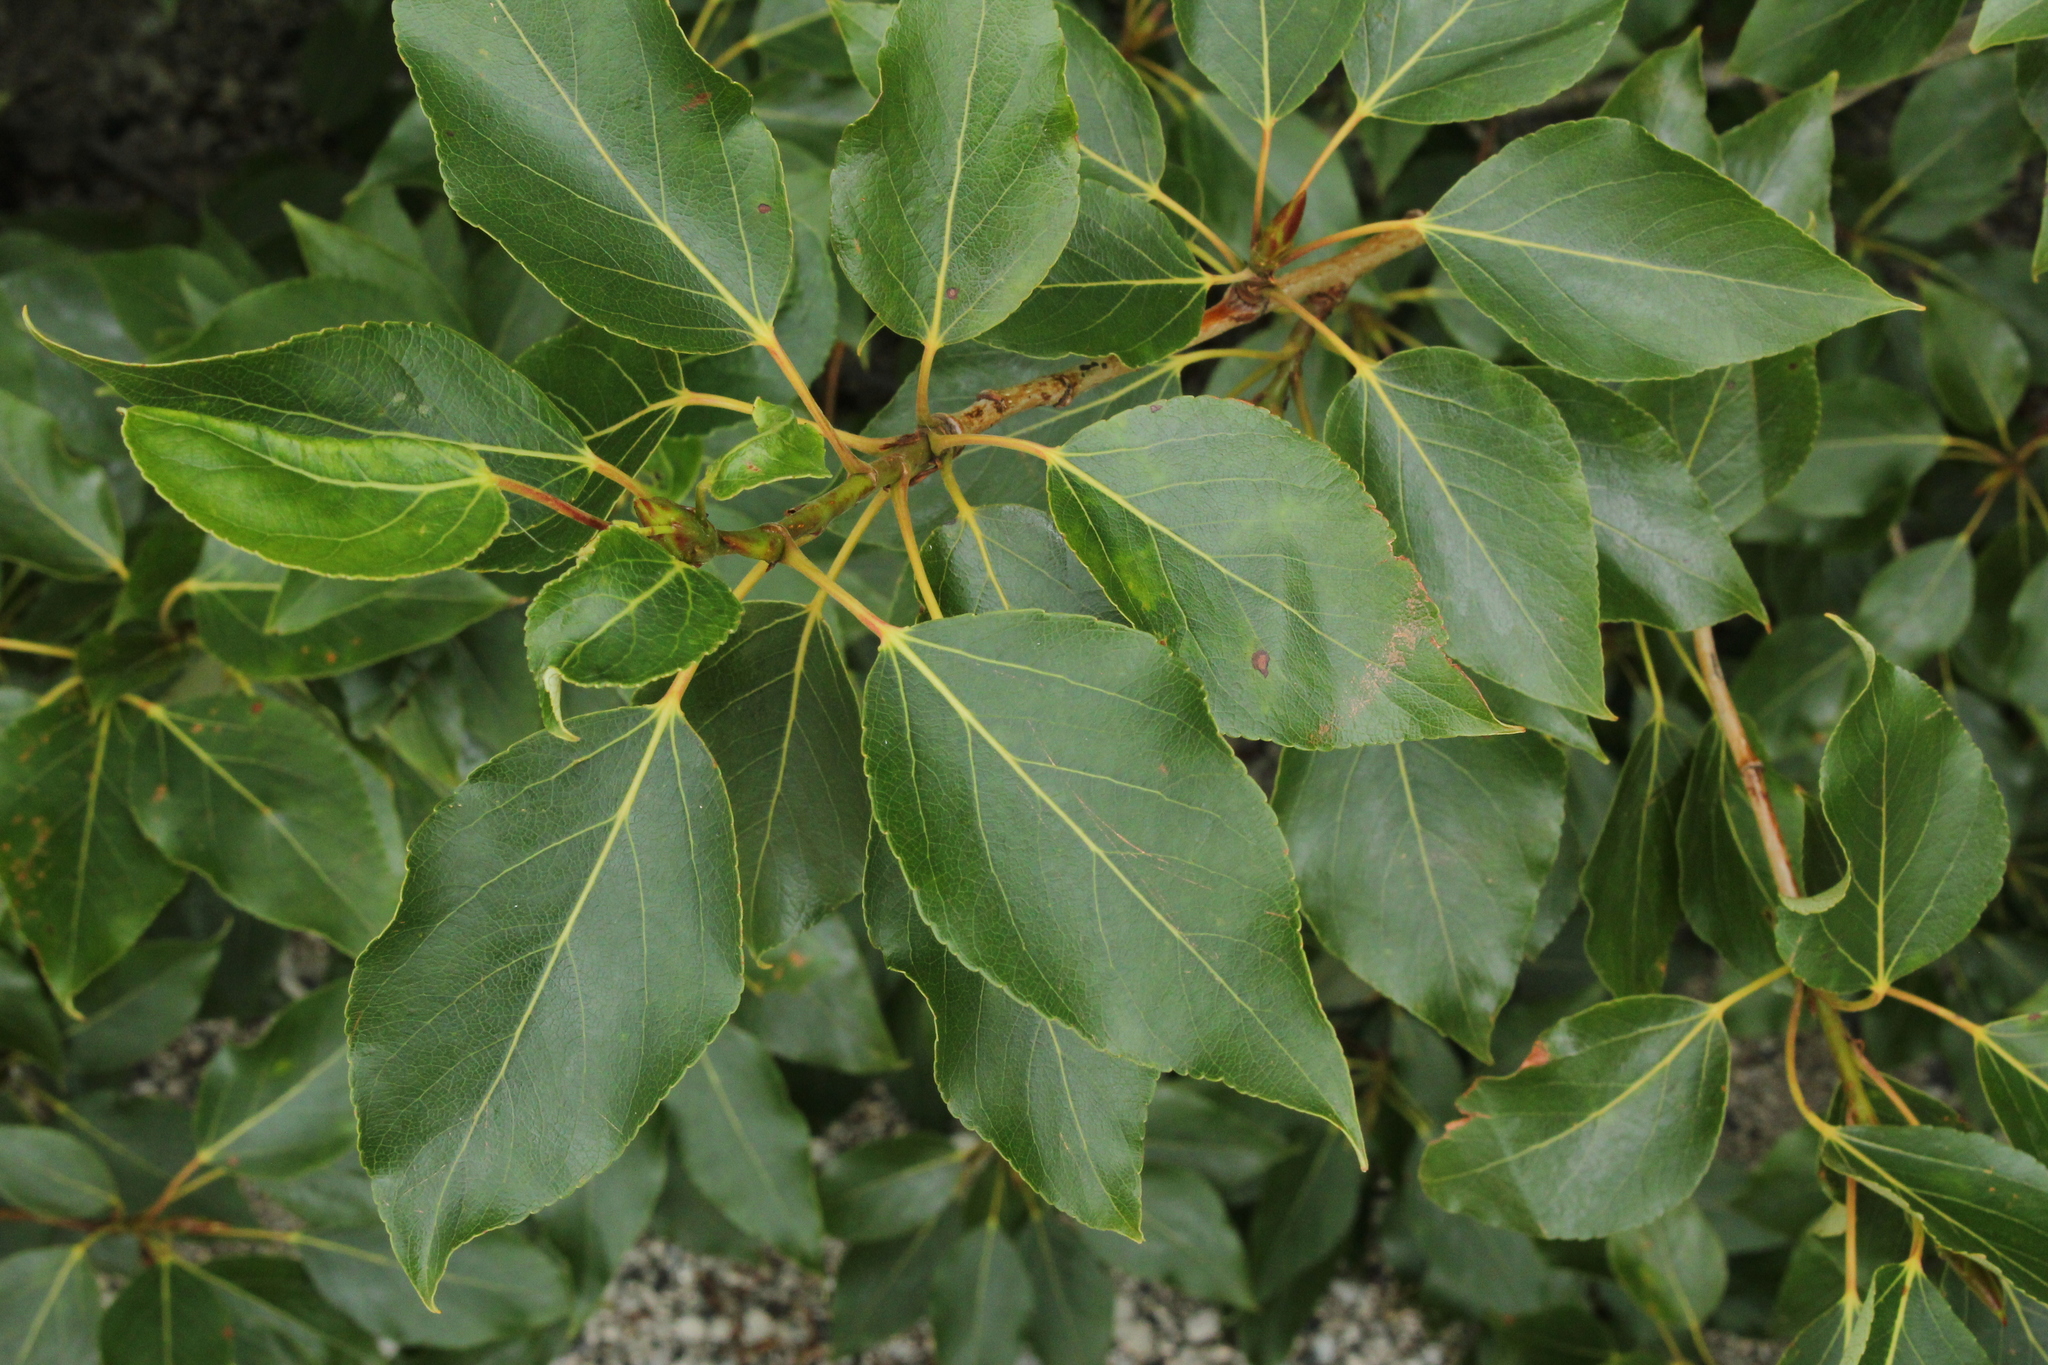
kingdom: Plantae
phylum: Tracheophyta
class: Magnoliopsida
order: Malpighiales
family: Salicaceae
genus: Populus
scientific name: Populus balsamifera
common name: Balsam poplar
